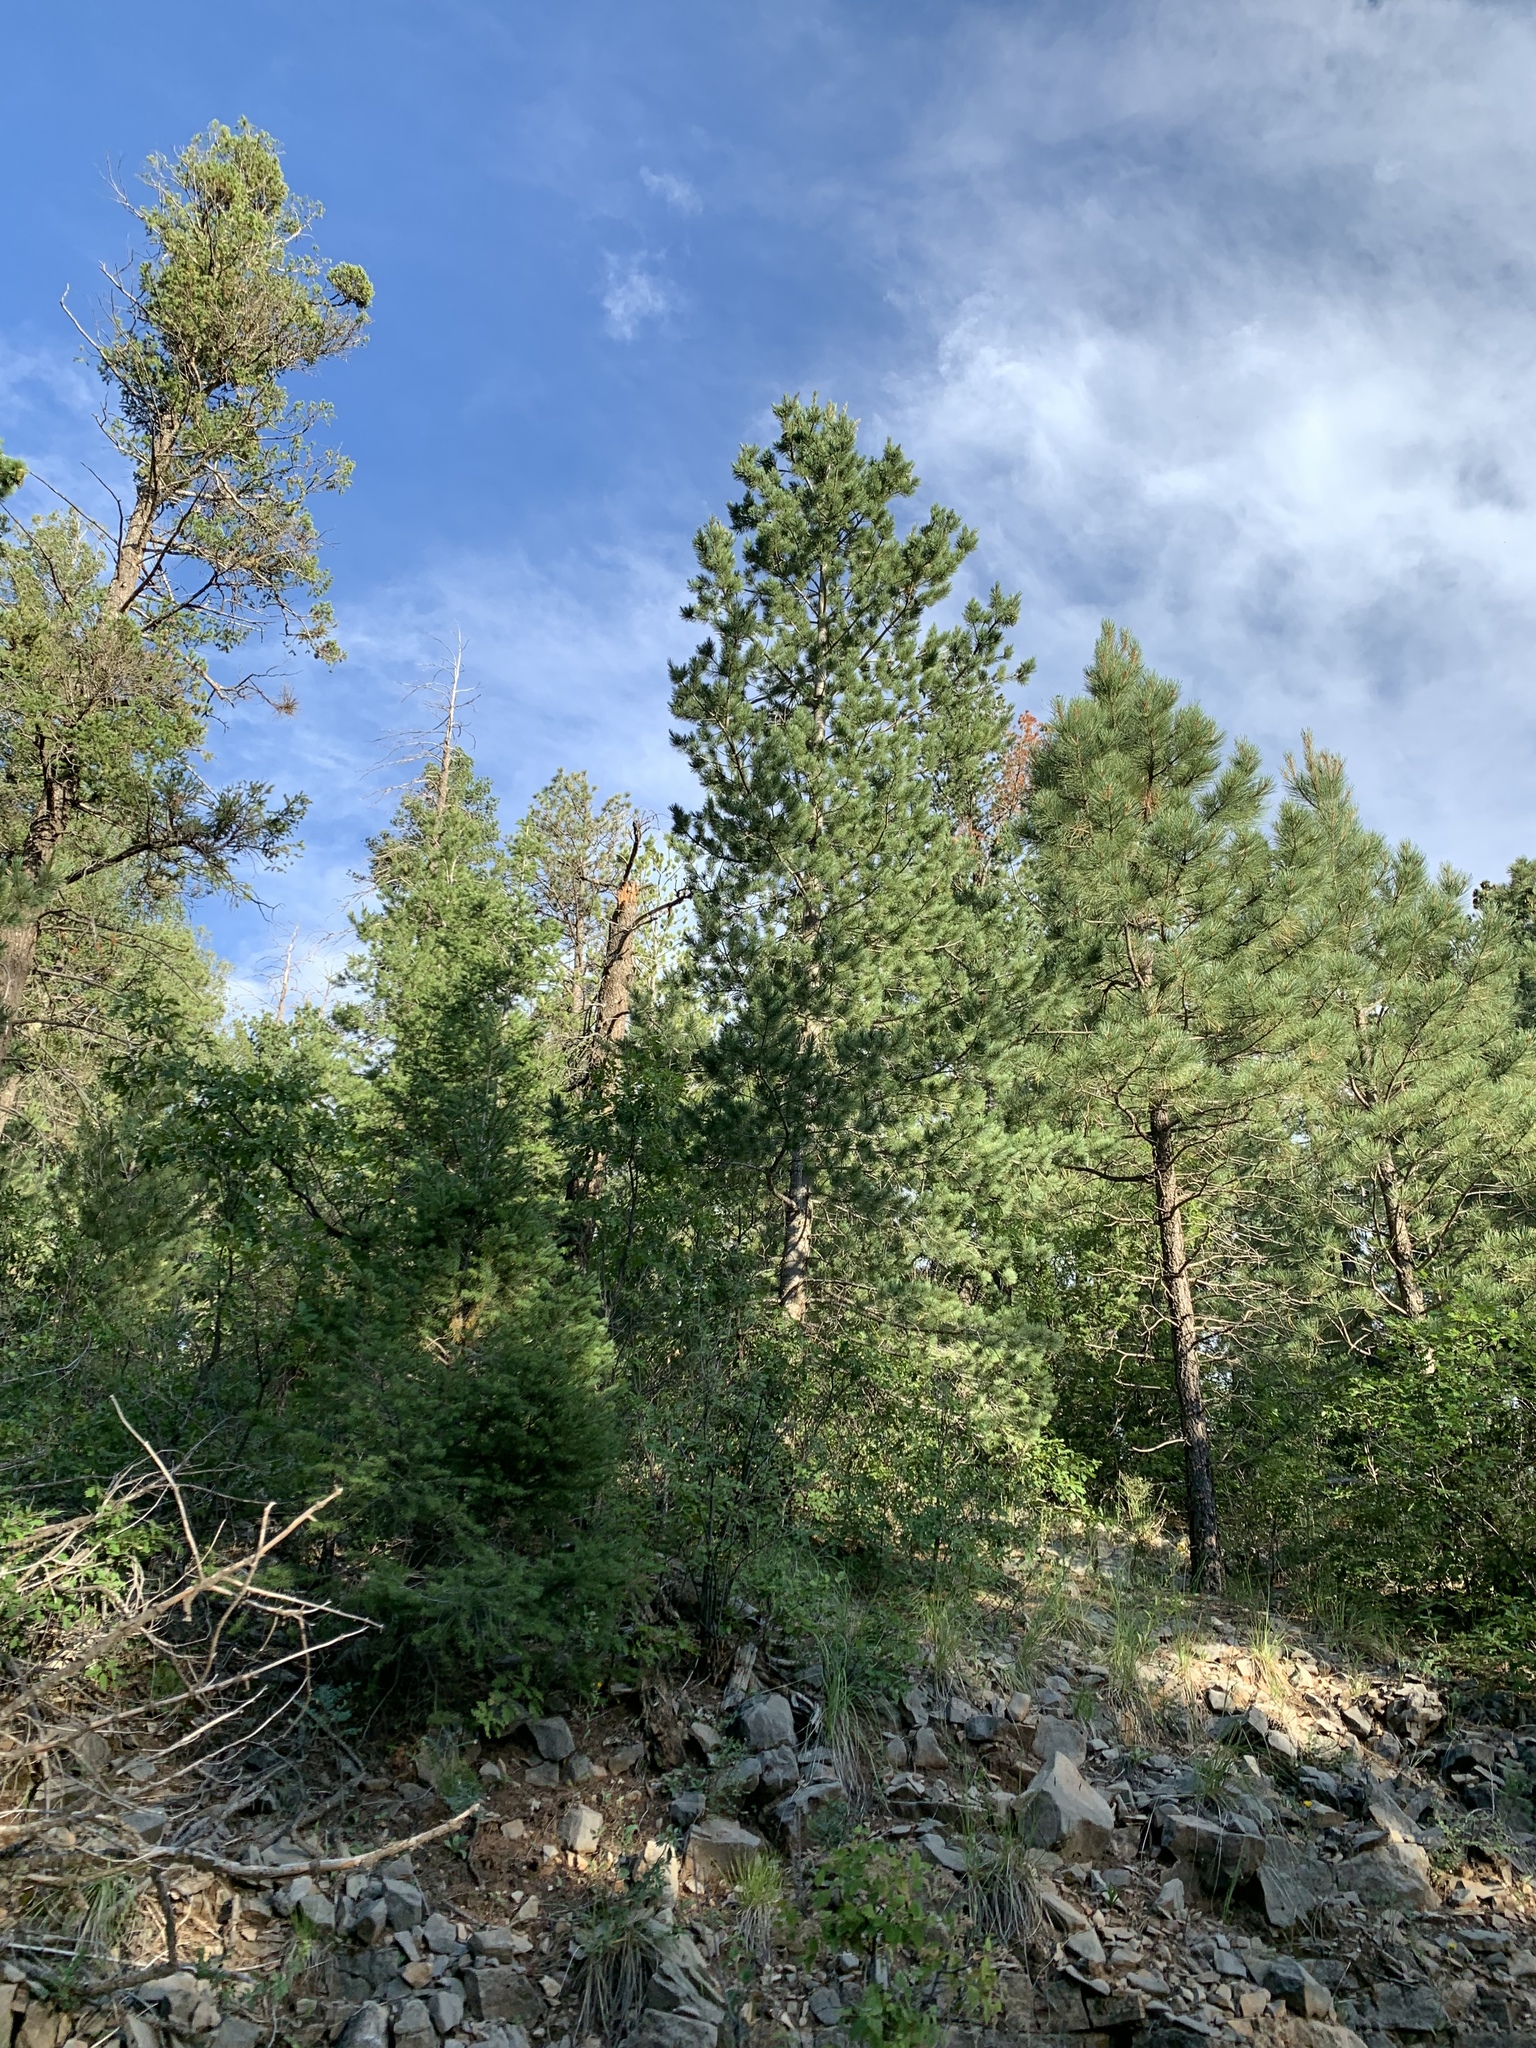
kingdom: Plantae
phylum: Tracheophyta
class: Pinopsida
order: Pinales
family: Pinaceae
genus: Pinus
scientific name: Pinus strobiformis
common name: Southwestern white pine
